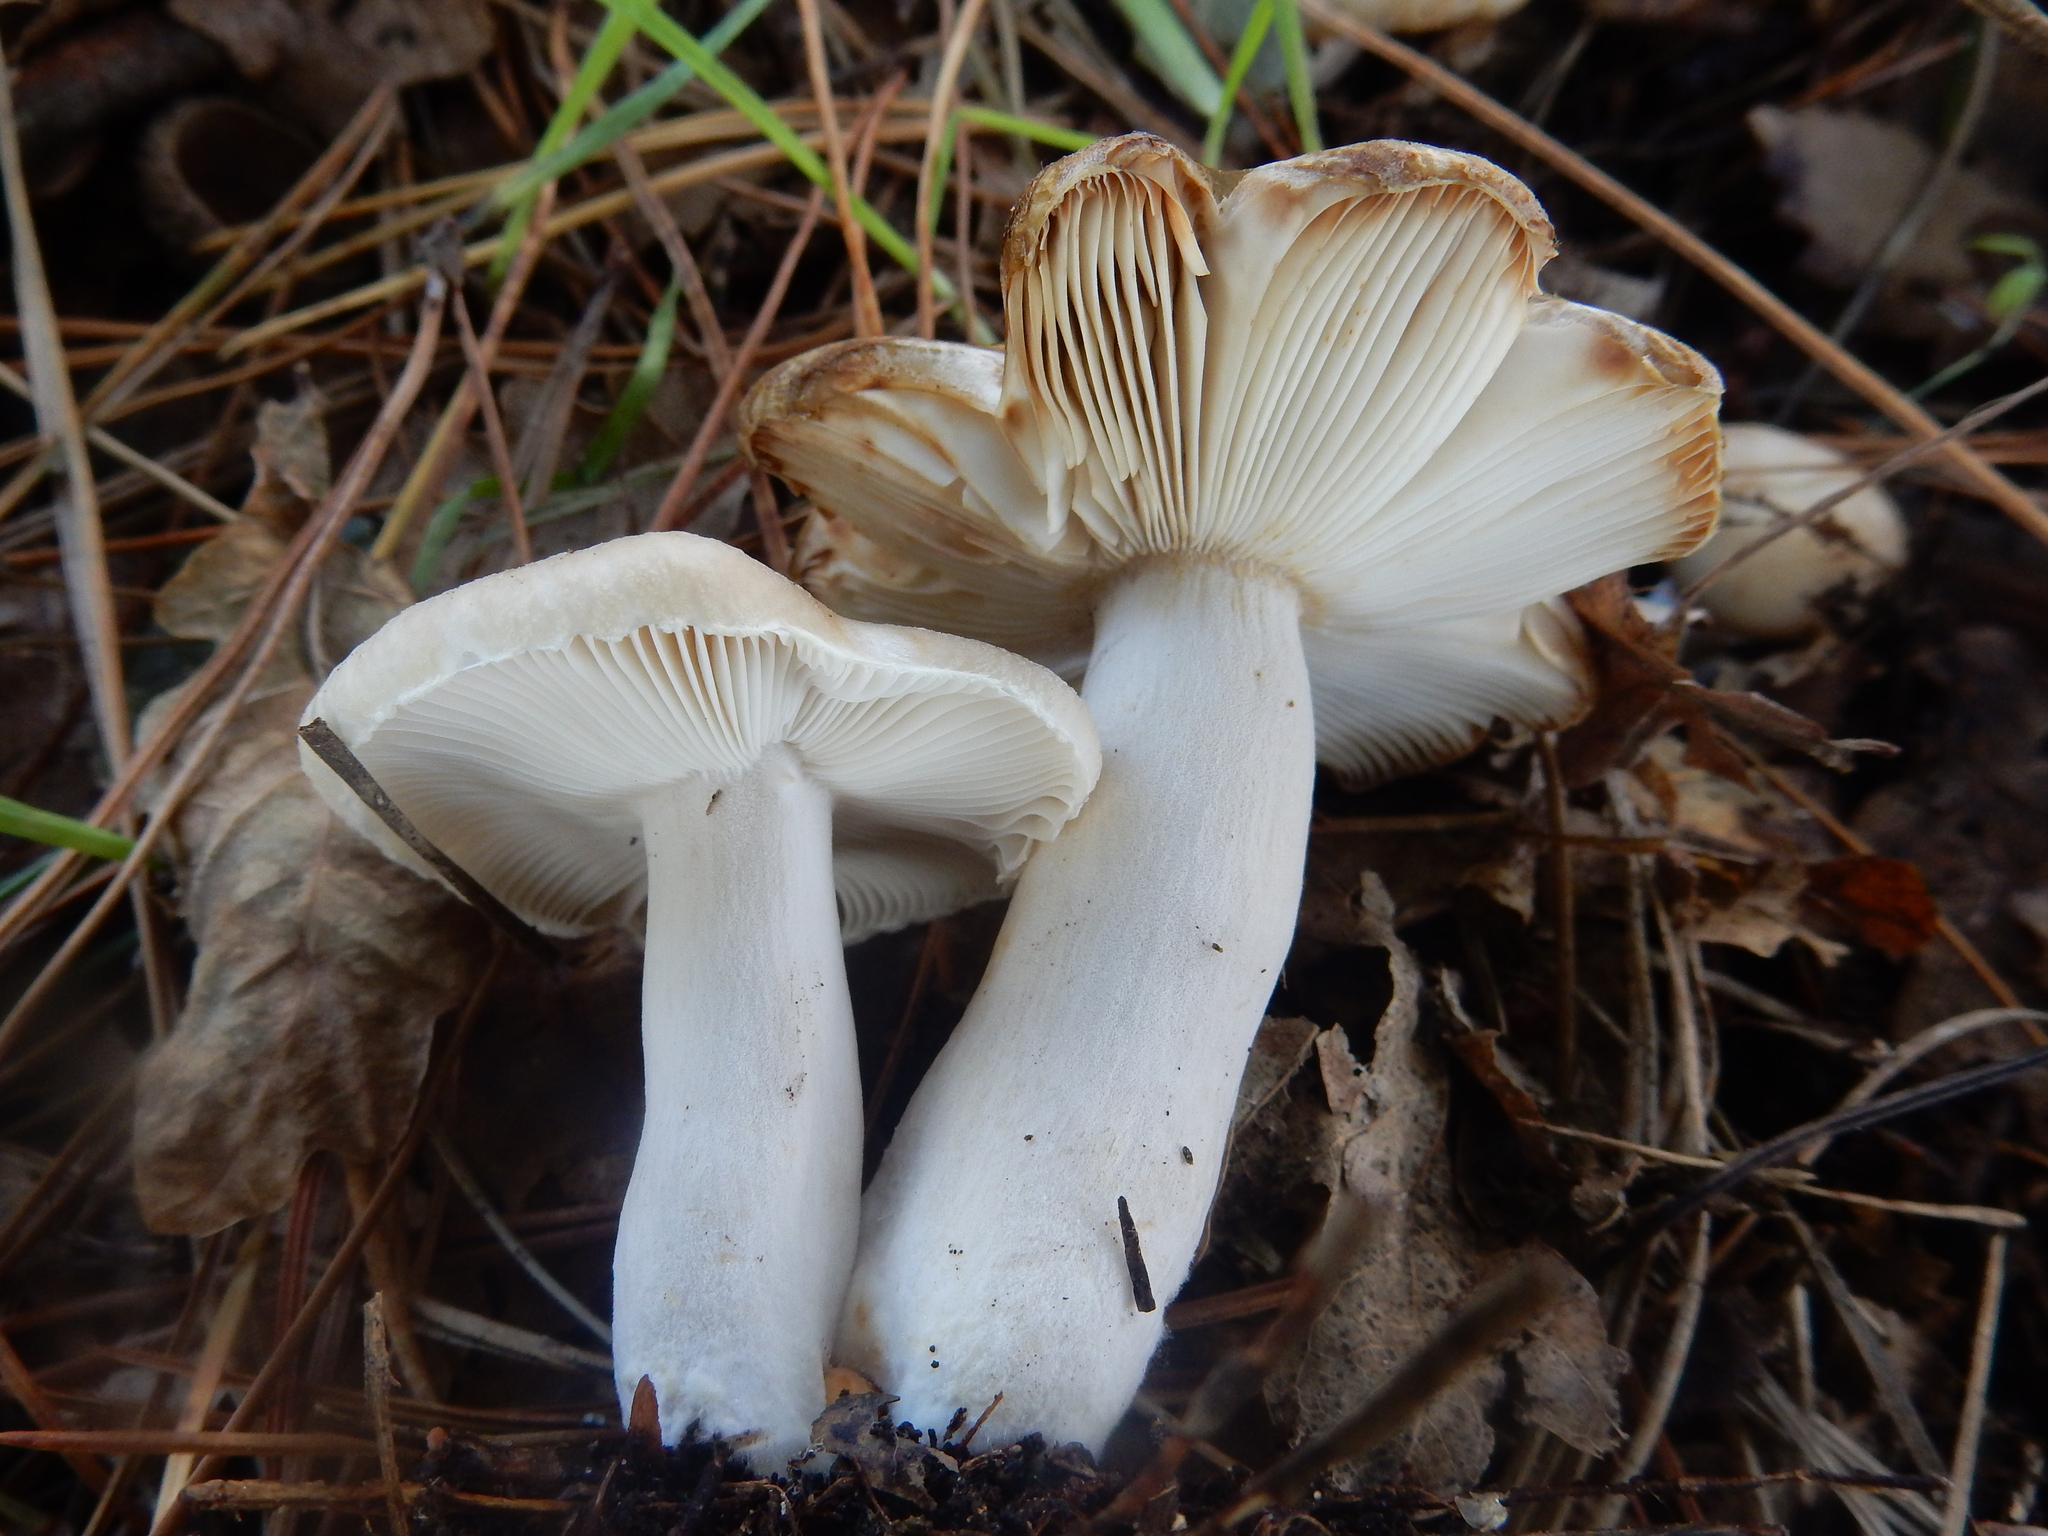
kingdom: Fungi
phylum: Basidiomycota
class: Agaricomycetes
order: Russulales
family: Russulaceae
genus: Russula
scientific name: Russula amoenolens
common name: Camembert brittlegill
